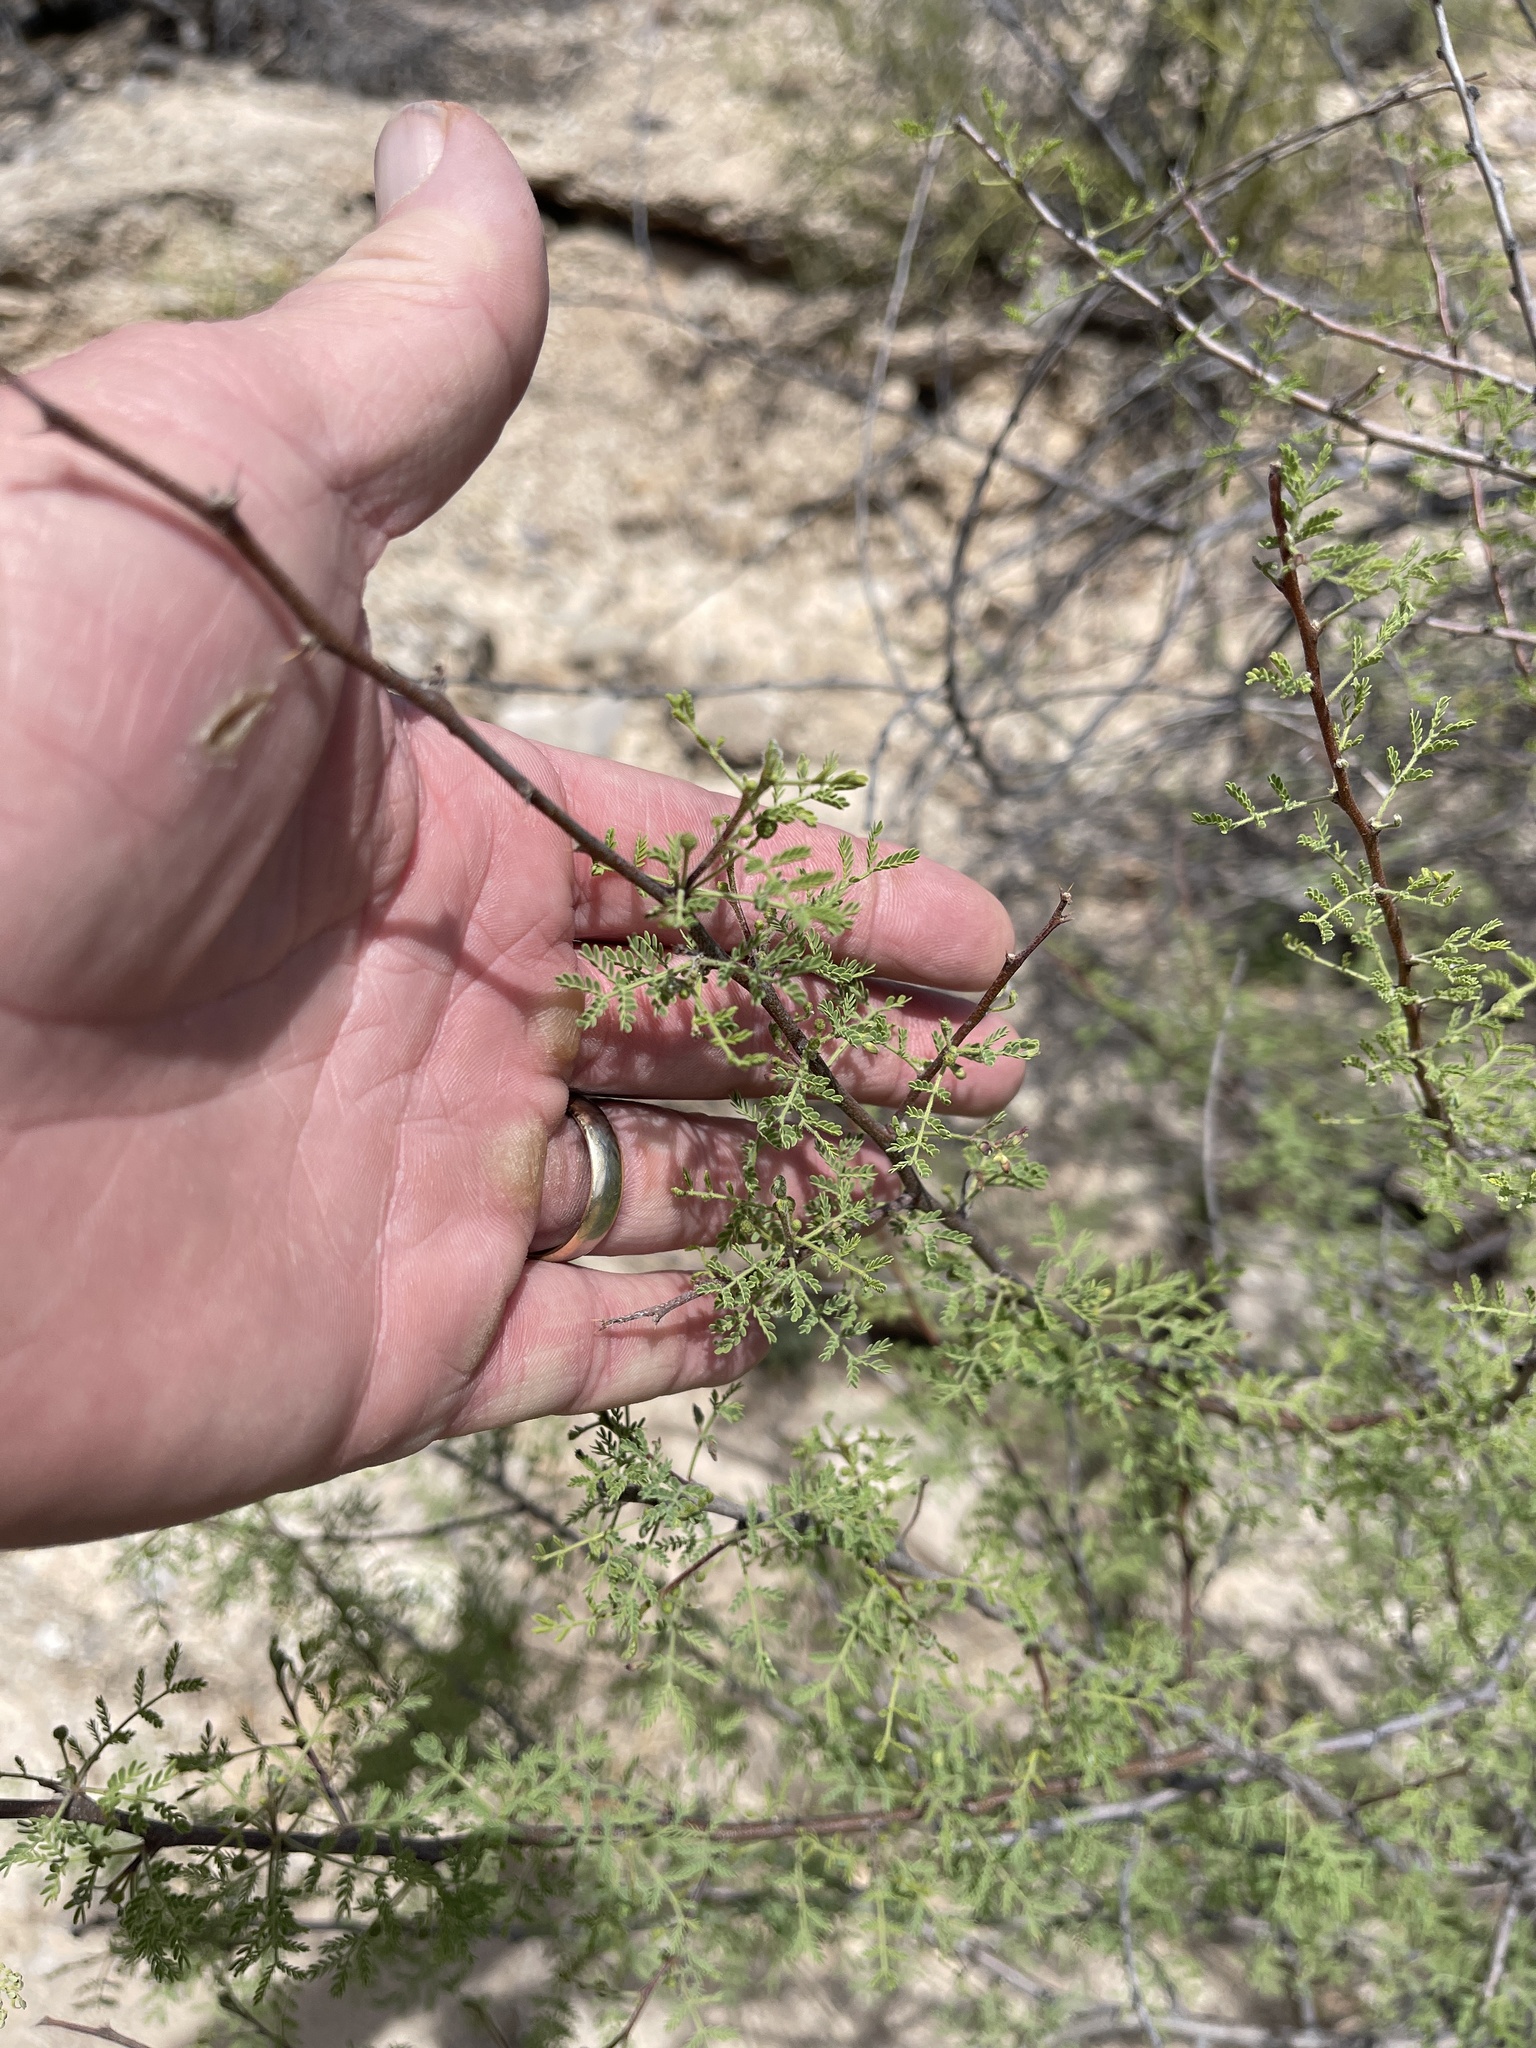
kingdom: Plantae
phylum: Tracheophyta
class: Magnoliopsida
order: Fabales
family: Fabaceae
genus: Vachellia
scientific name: Vachellia constricta
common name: Mescat acacia
